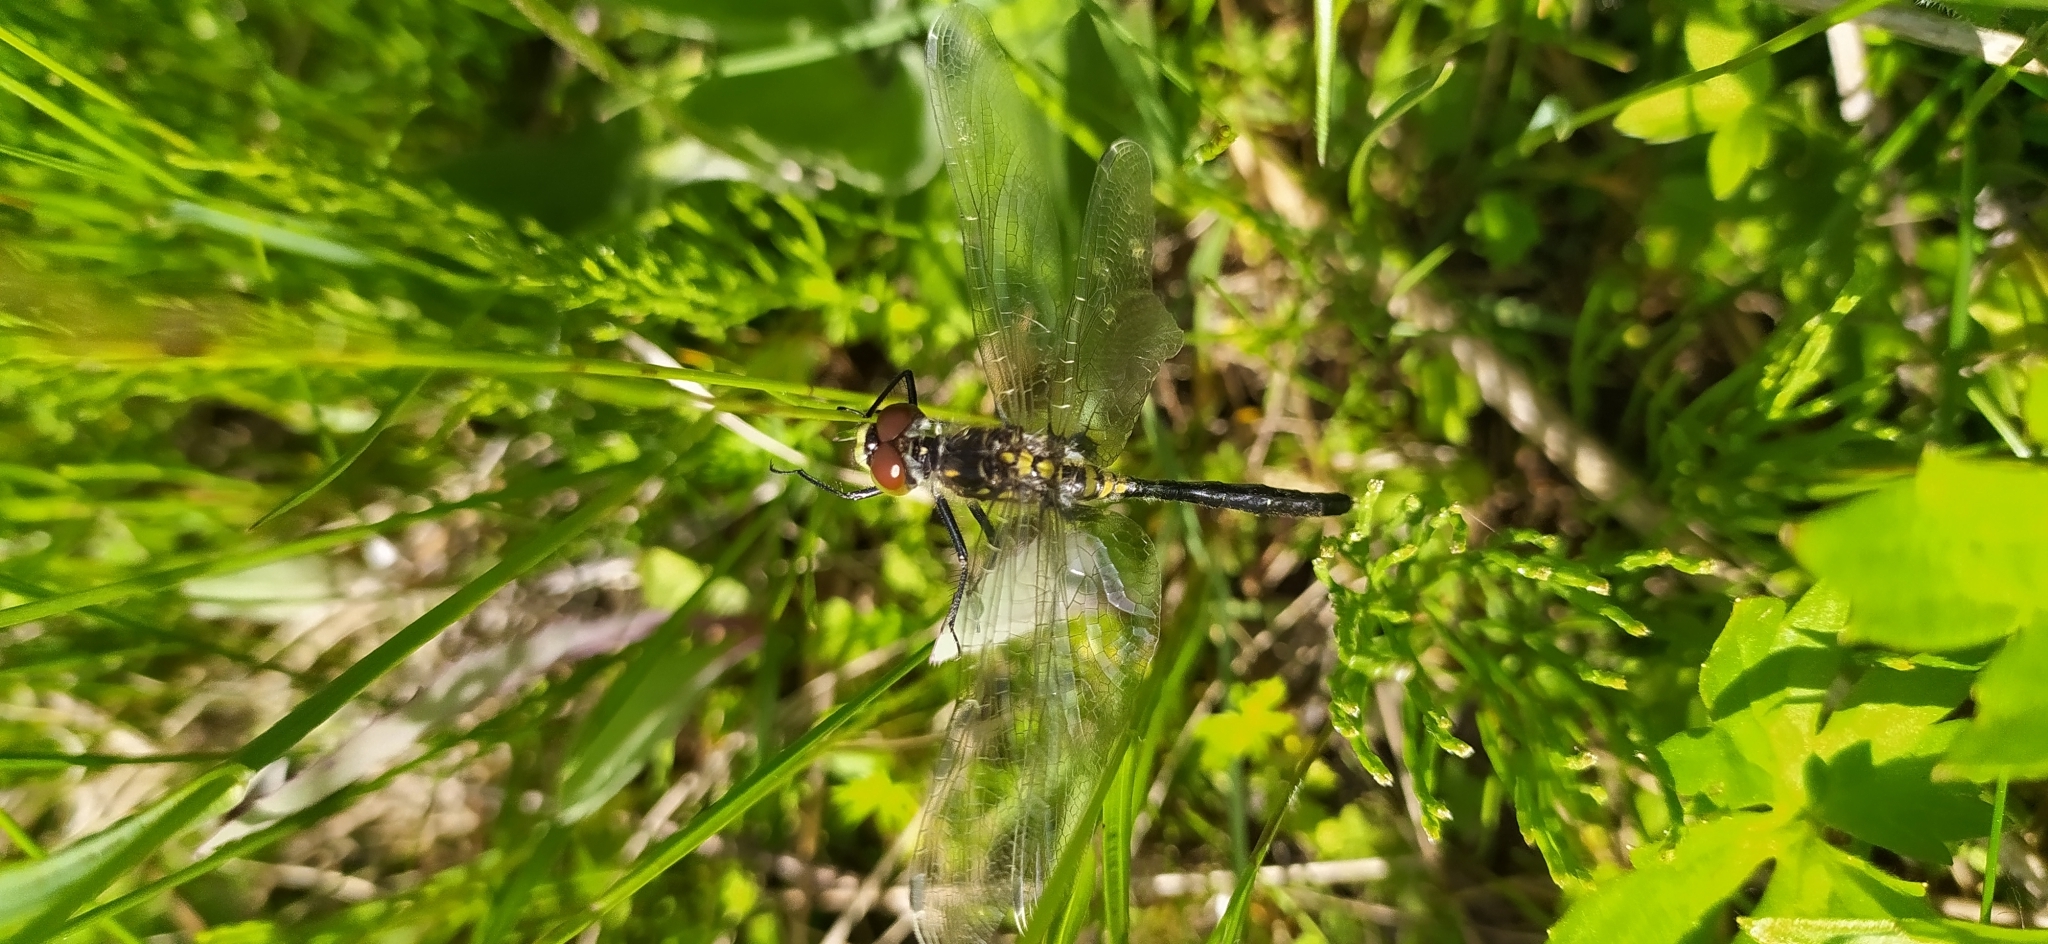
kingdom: Animalia
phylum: Arthropoda
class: Insecta
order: Odonata
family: Libellulidae
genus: Leucorrhinia
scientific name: Leucorrhinia albifrons
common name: Dark whiteface
